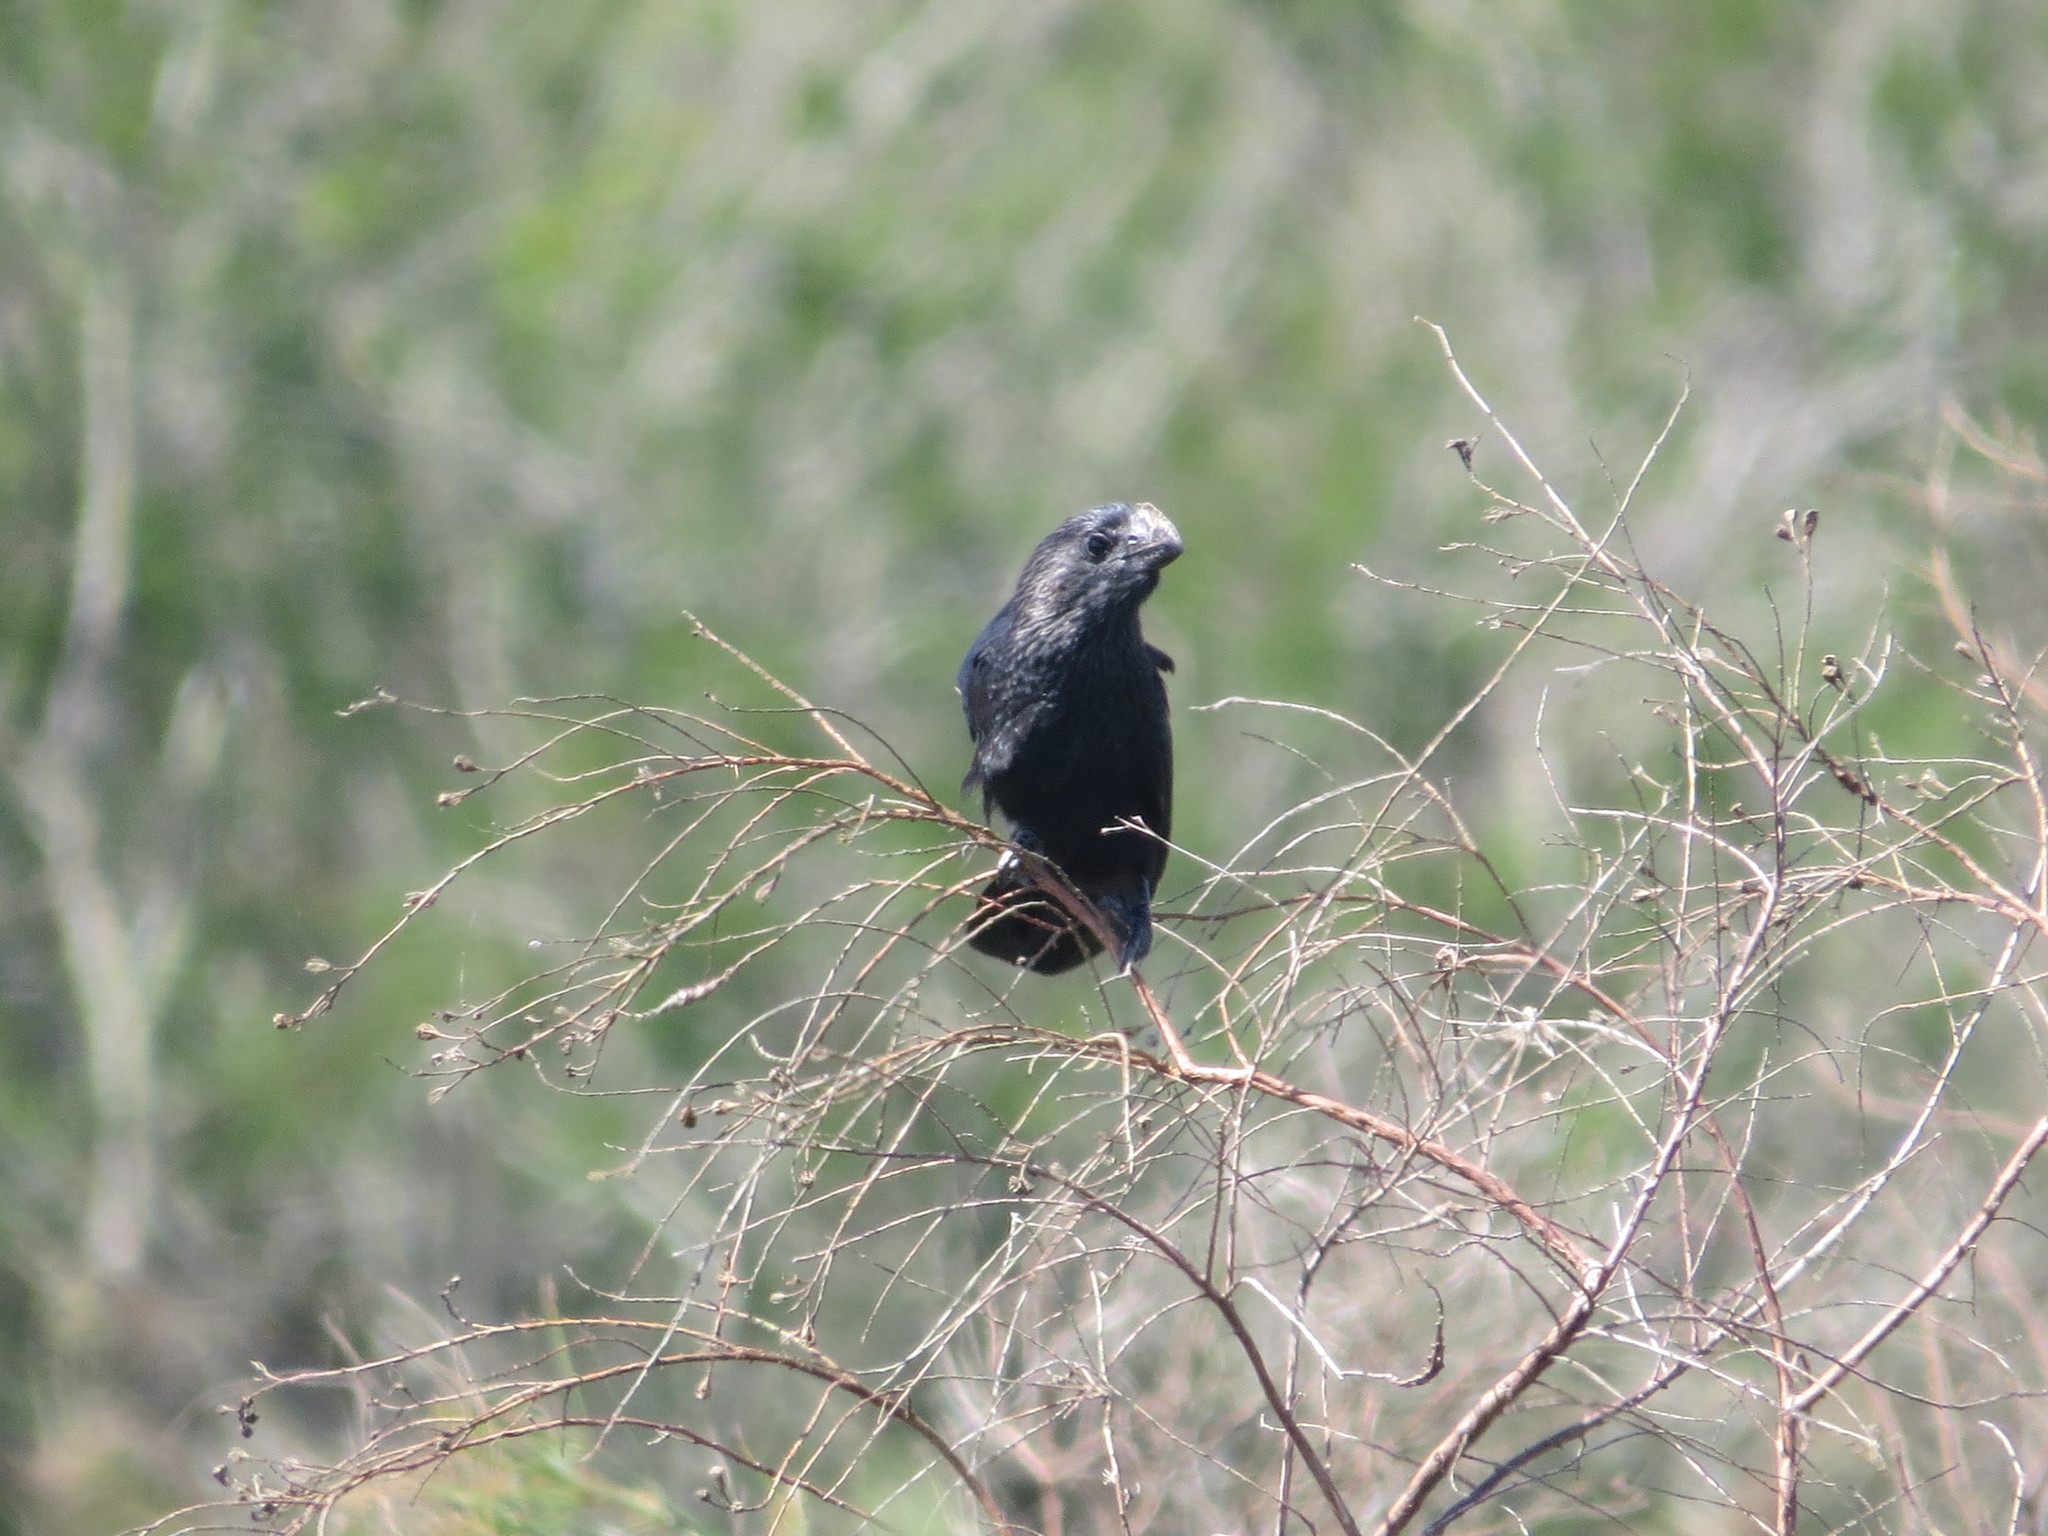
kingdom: Animalia
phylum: Chordata
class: Aves
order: Cuculiformes
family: Cuculidae
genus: Crotophaga
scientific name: Crotophaga ani
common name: Smooth-billed ani
